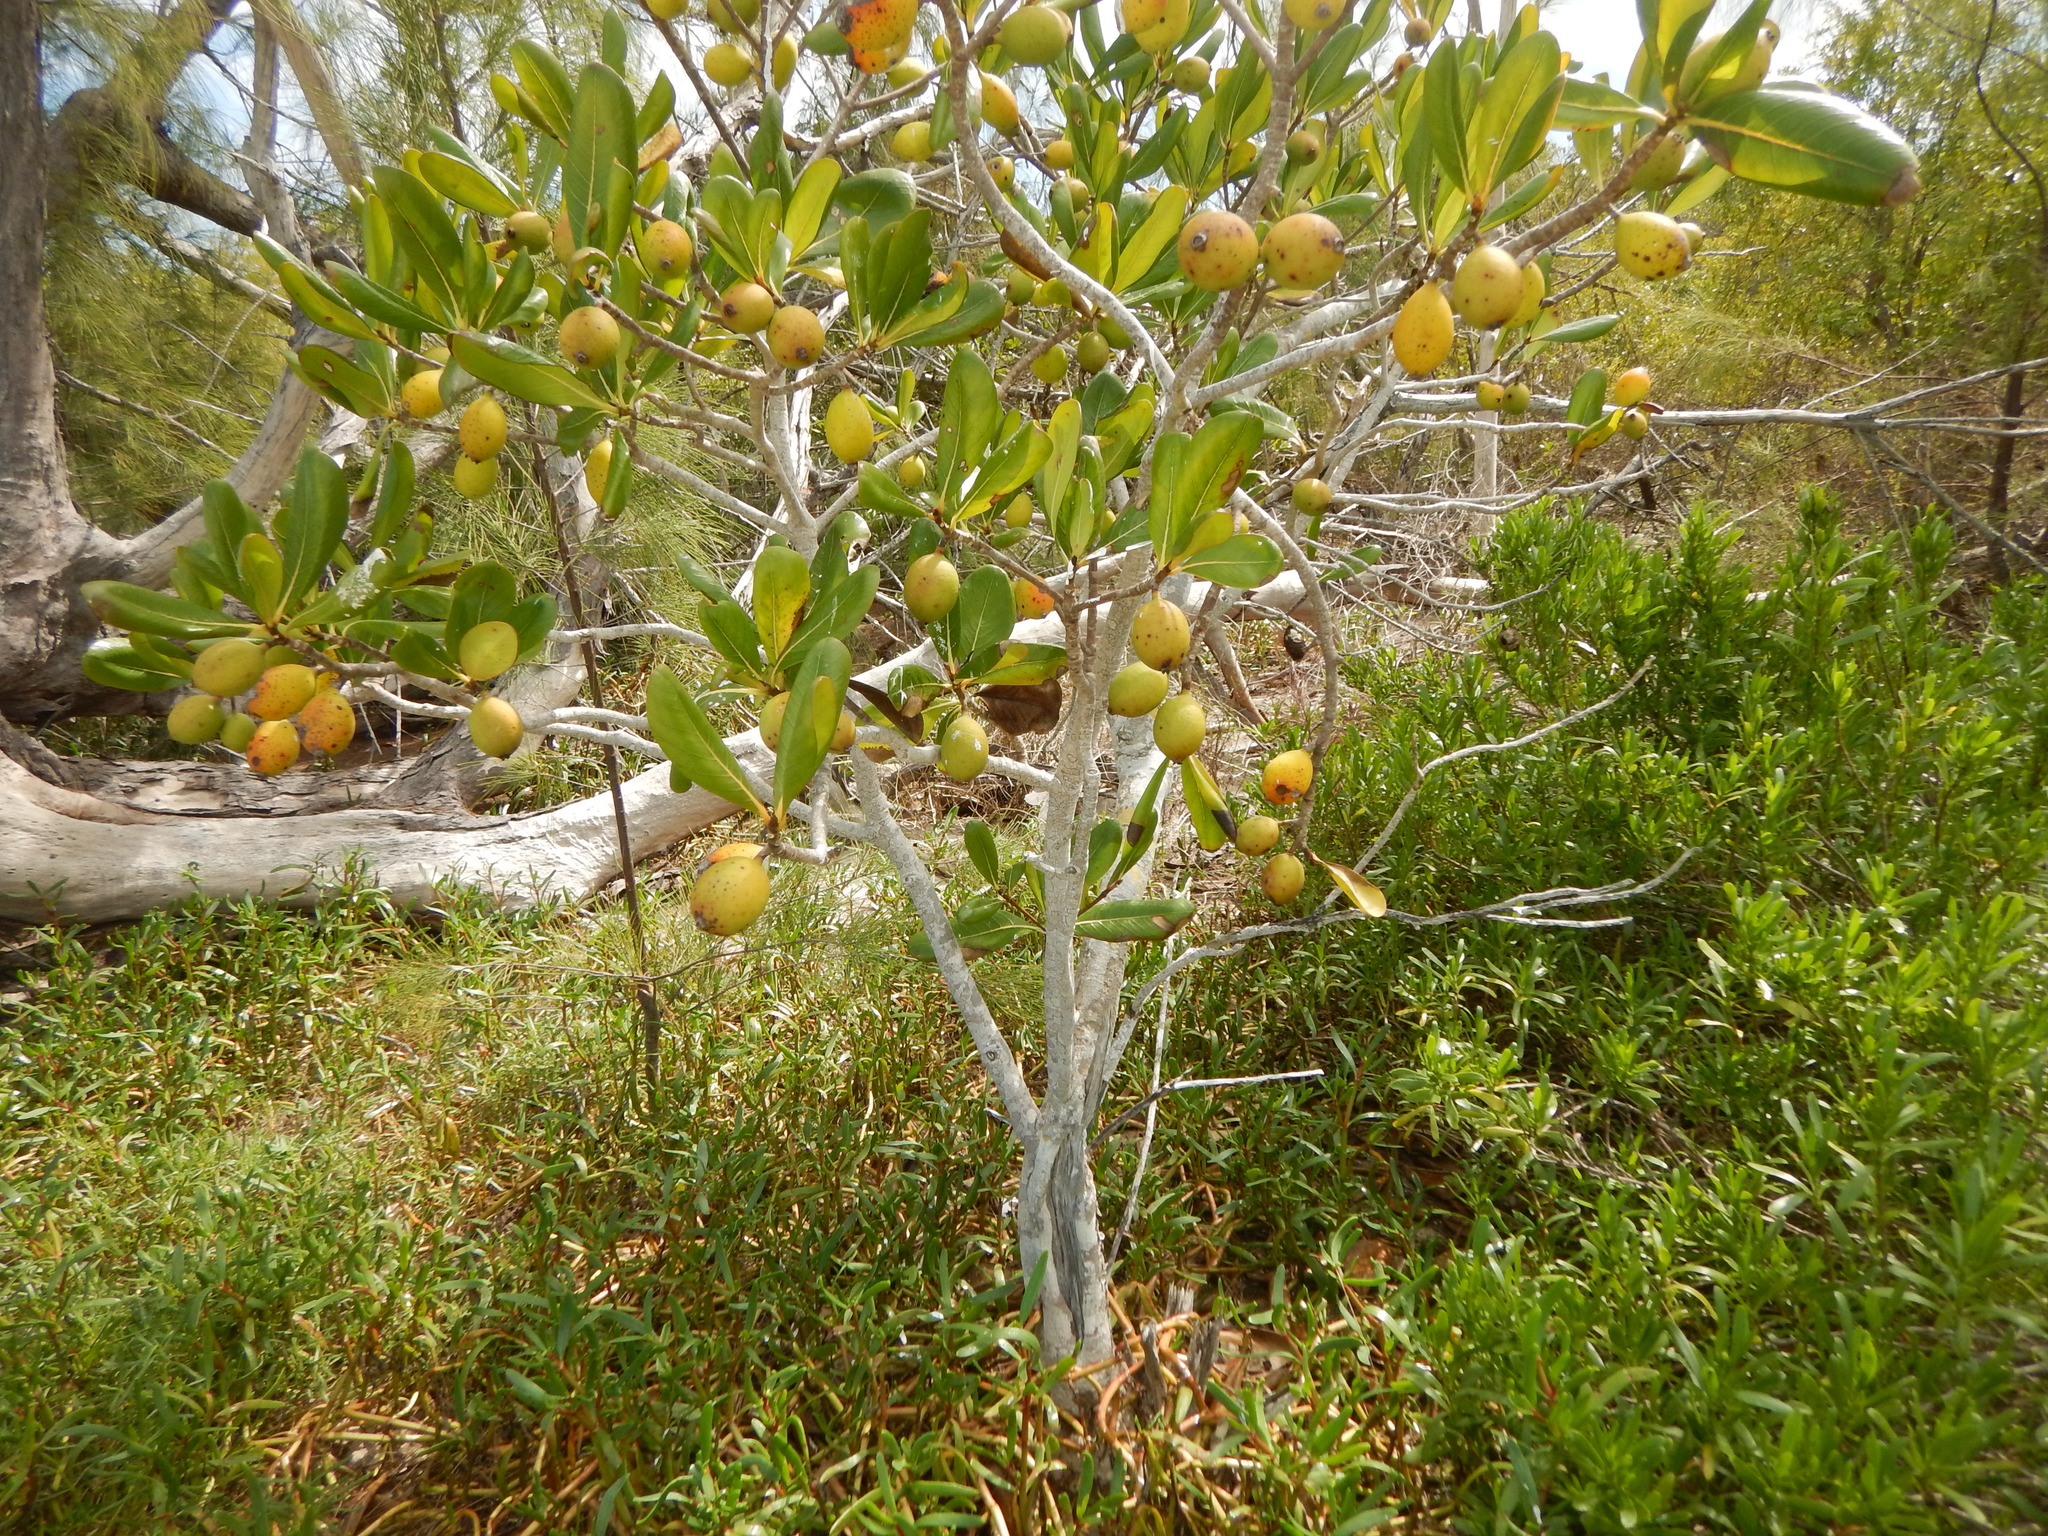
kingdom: Plantae
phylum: Tracheophyta
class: Magnoliopsida
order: Gentianales
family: Rubiaceae
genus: Casasia
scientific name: Casasia clusiifolia
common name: Seven-year apple
